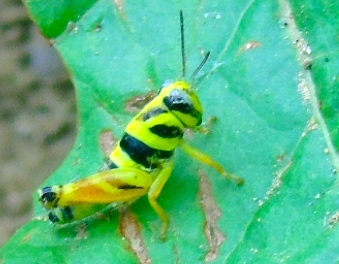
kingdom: Animalia
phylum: Arthropoda
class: Insecta
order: Orthoptera
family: Acrididae
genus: Aidemona
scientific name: Aidemona azteca
